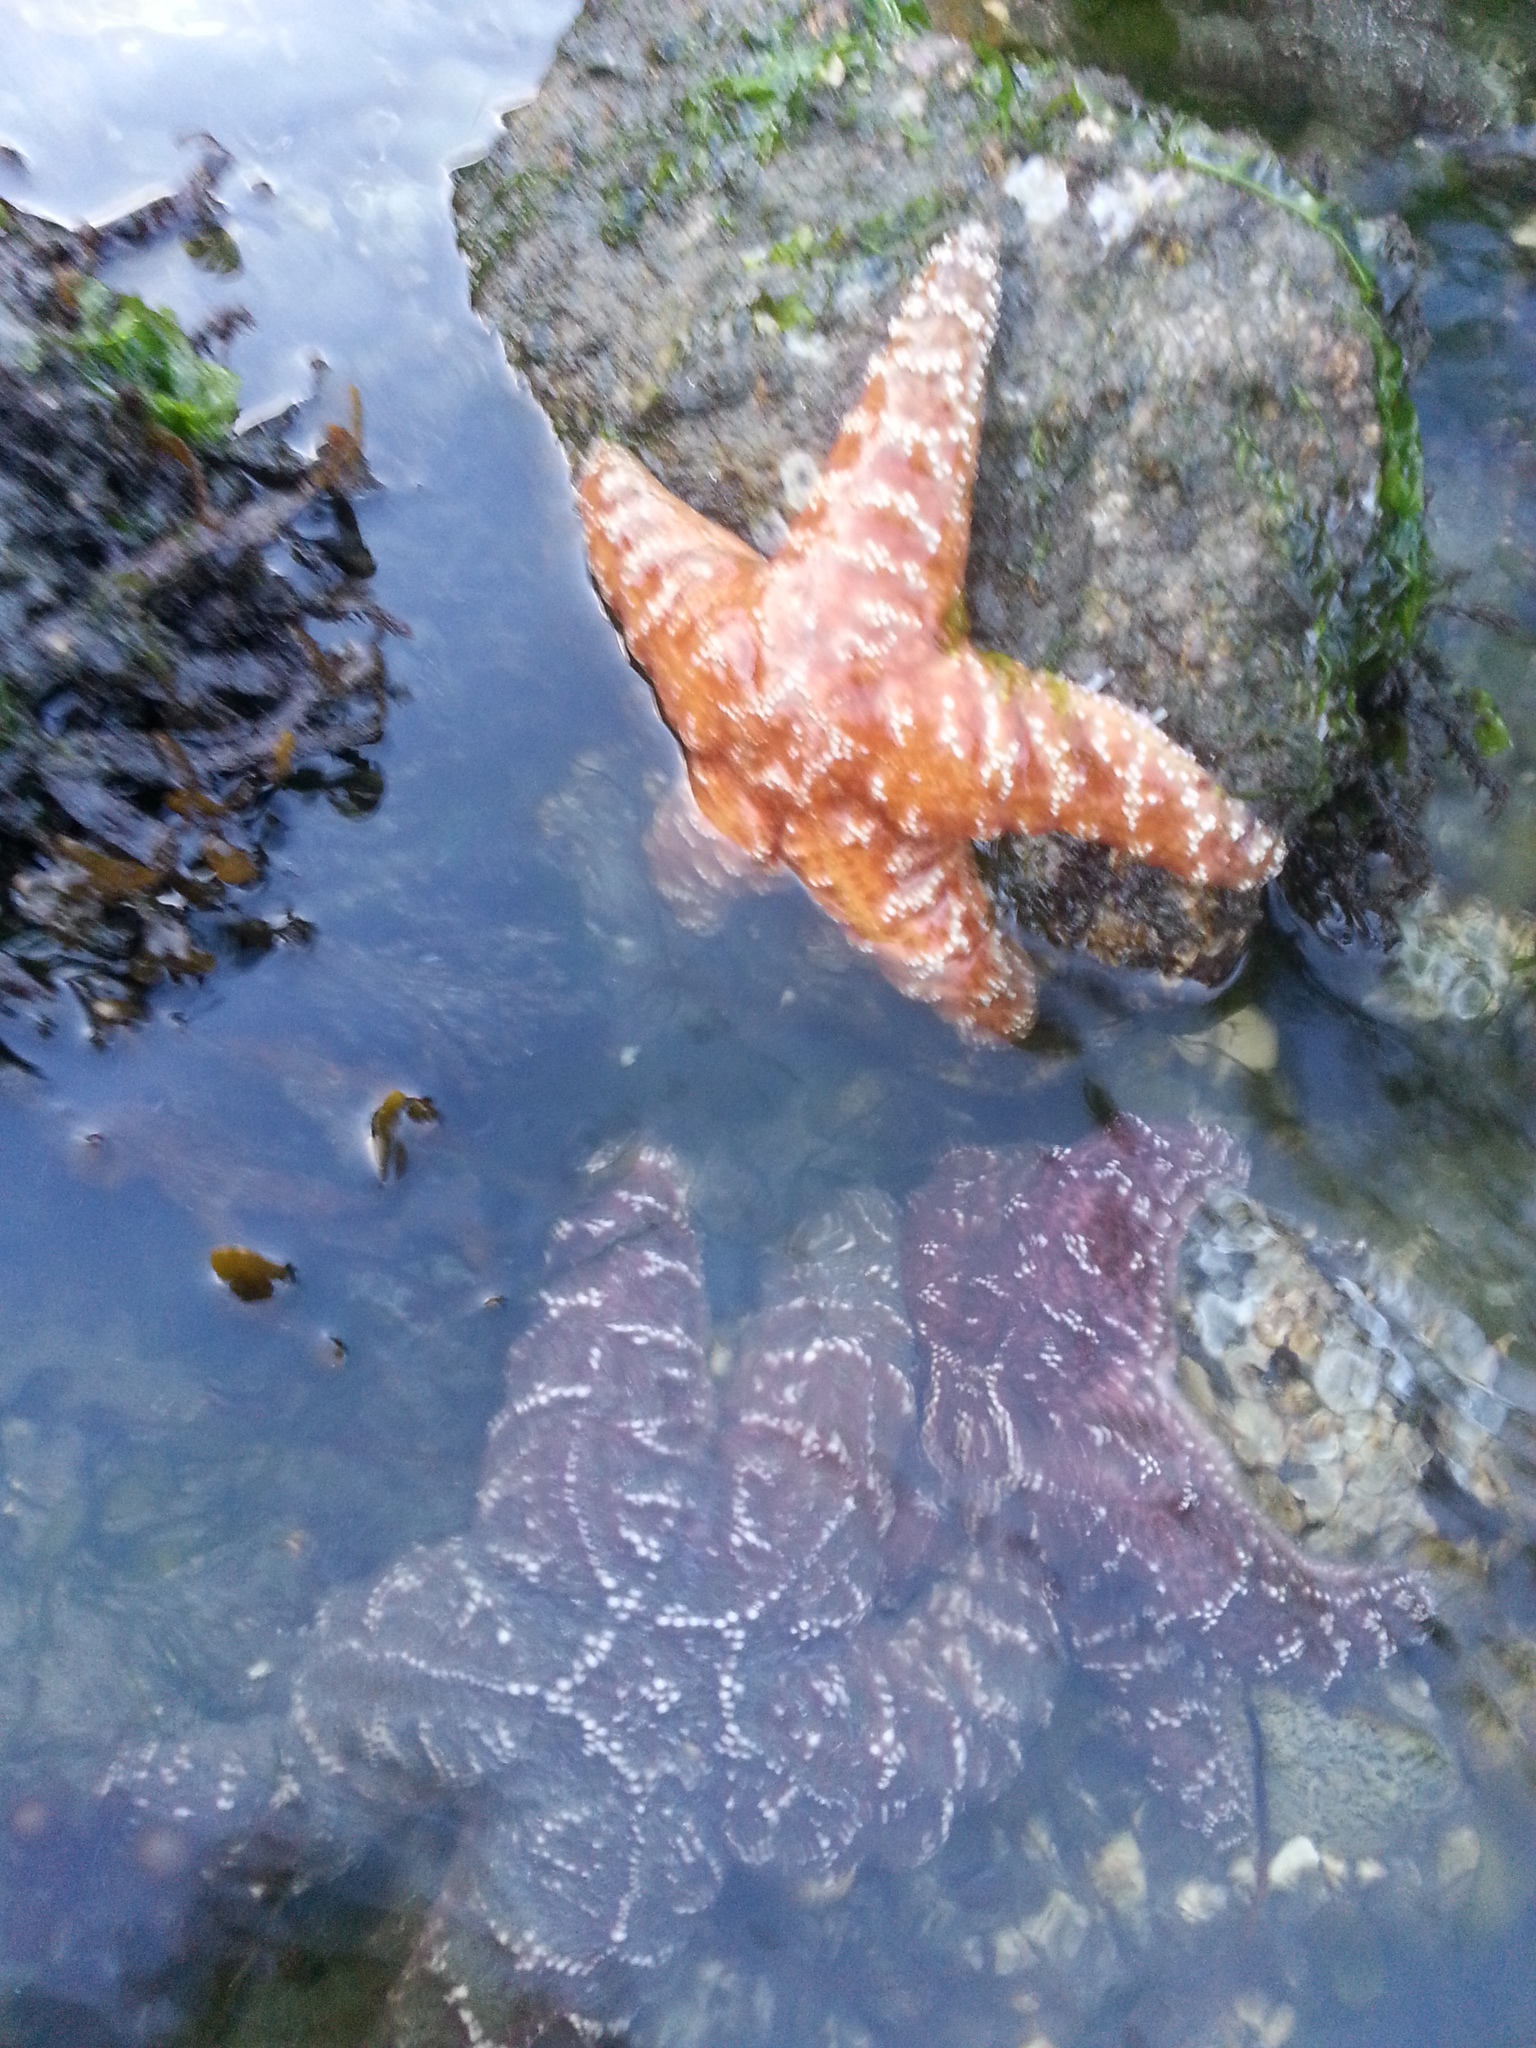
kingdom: Animalia
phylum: Echinodermata
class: Asteroidea
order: Forcipulatida
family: Asteriidae
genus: Pisaster
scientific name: Pisaster ochraceus
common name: Ochre stars
